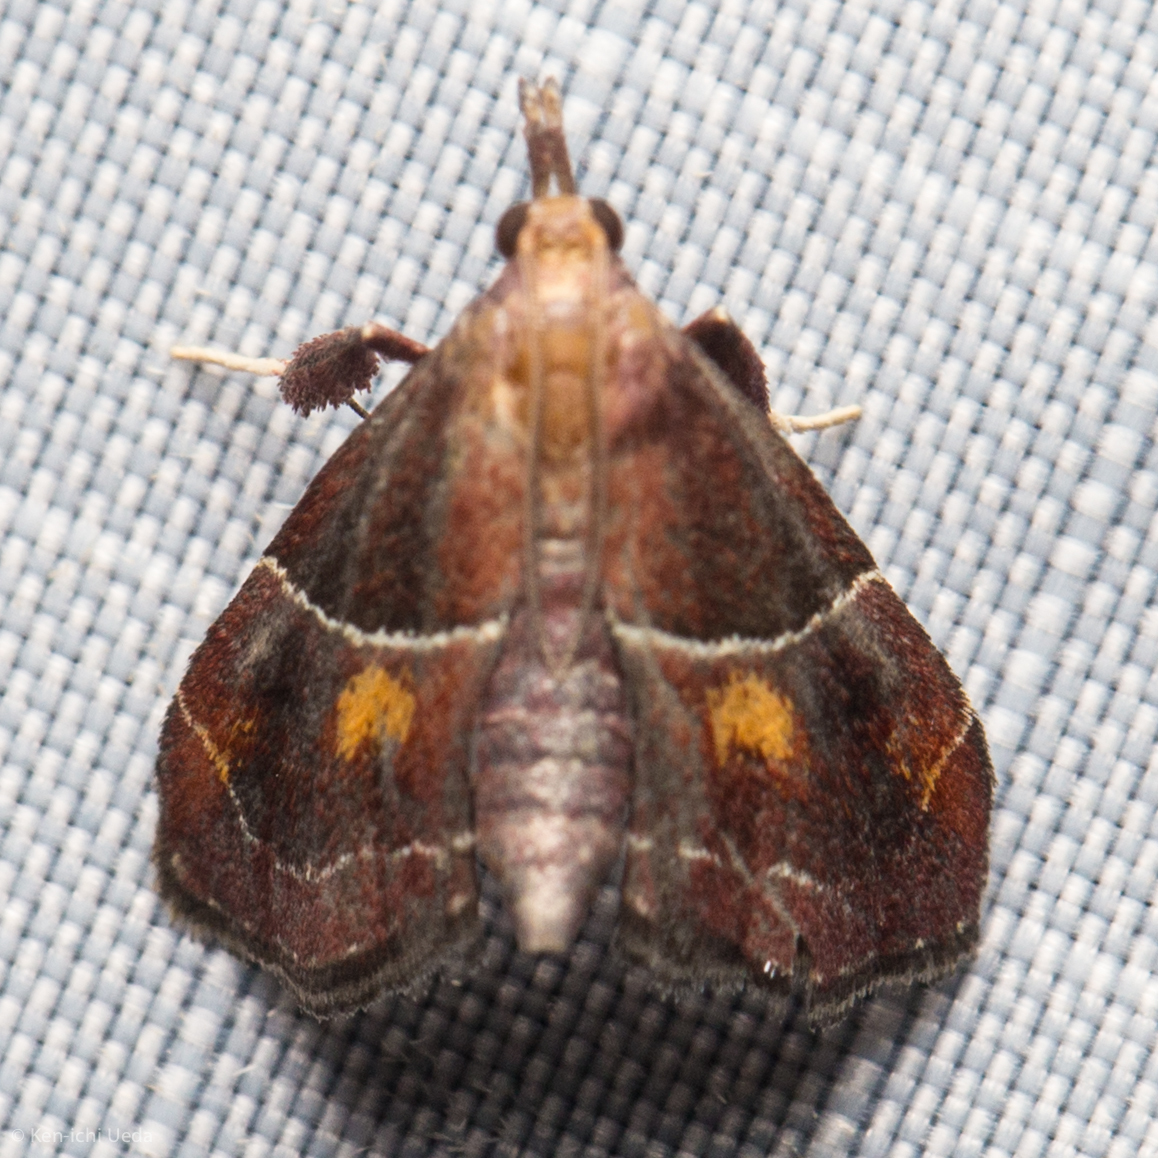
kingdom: Animalia
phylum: Arthropoda
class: Insecta
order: Lepidoptera
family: Pyralidae
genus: Penthesilea
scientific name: Penthesilea sacculalis
